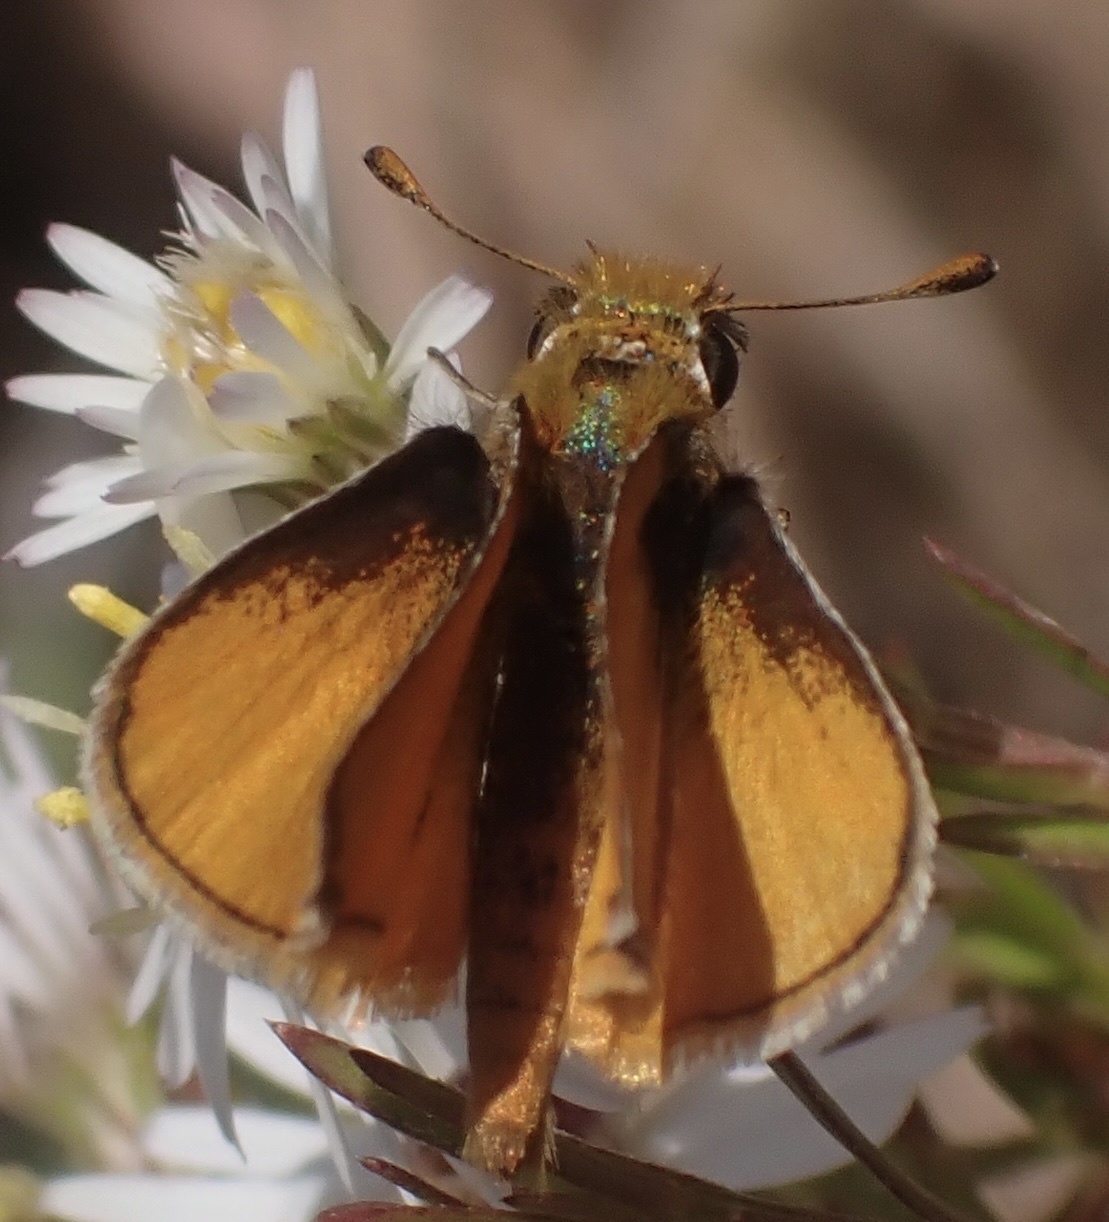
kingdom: Animalia
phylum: Arthropoda
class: Insecta
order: Lepidoptera
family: Hesperiidae
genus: Copaeodes
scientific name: Copaeodes minima
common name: Southern skipperling
